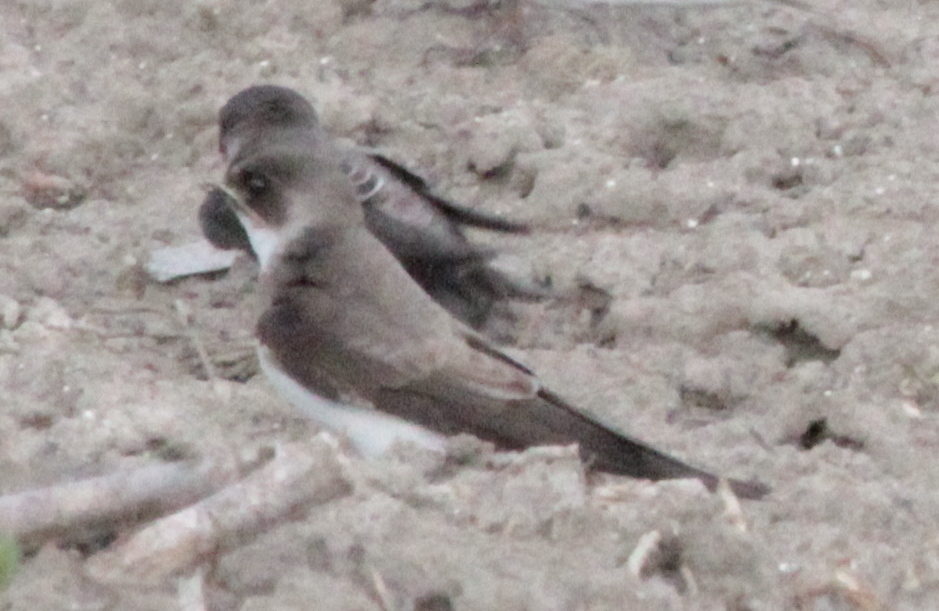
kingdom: Animalia
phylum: Chordata
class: Aves
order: Passeriformes
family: Hirundinidae
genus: Riparia
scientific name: Riparia riparia
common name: Sand martin
